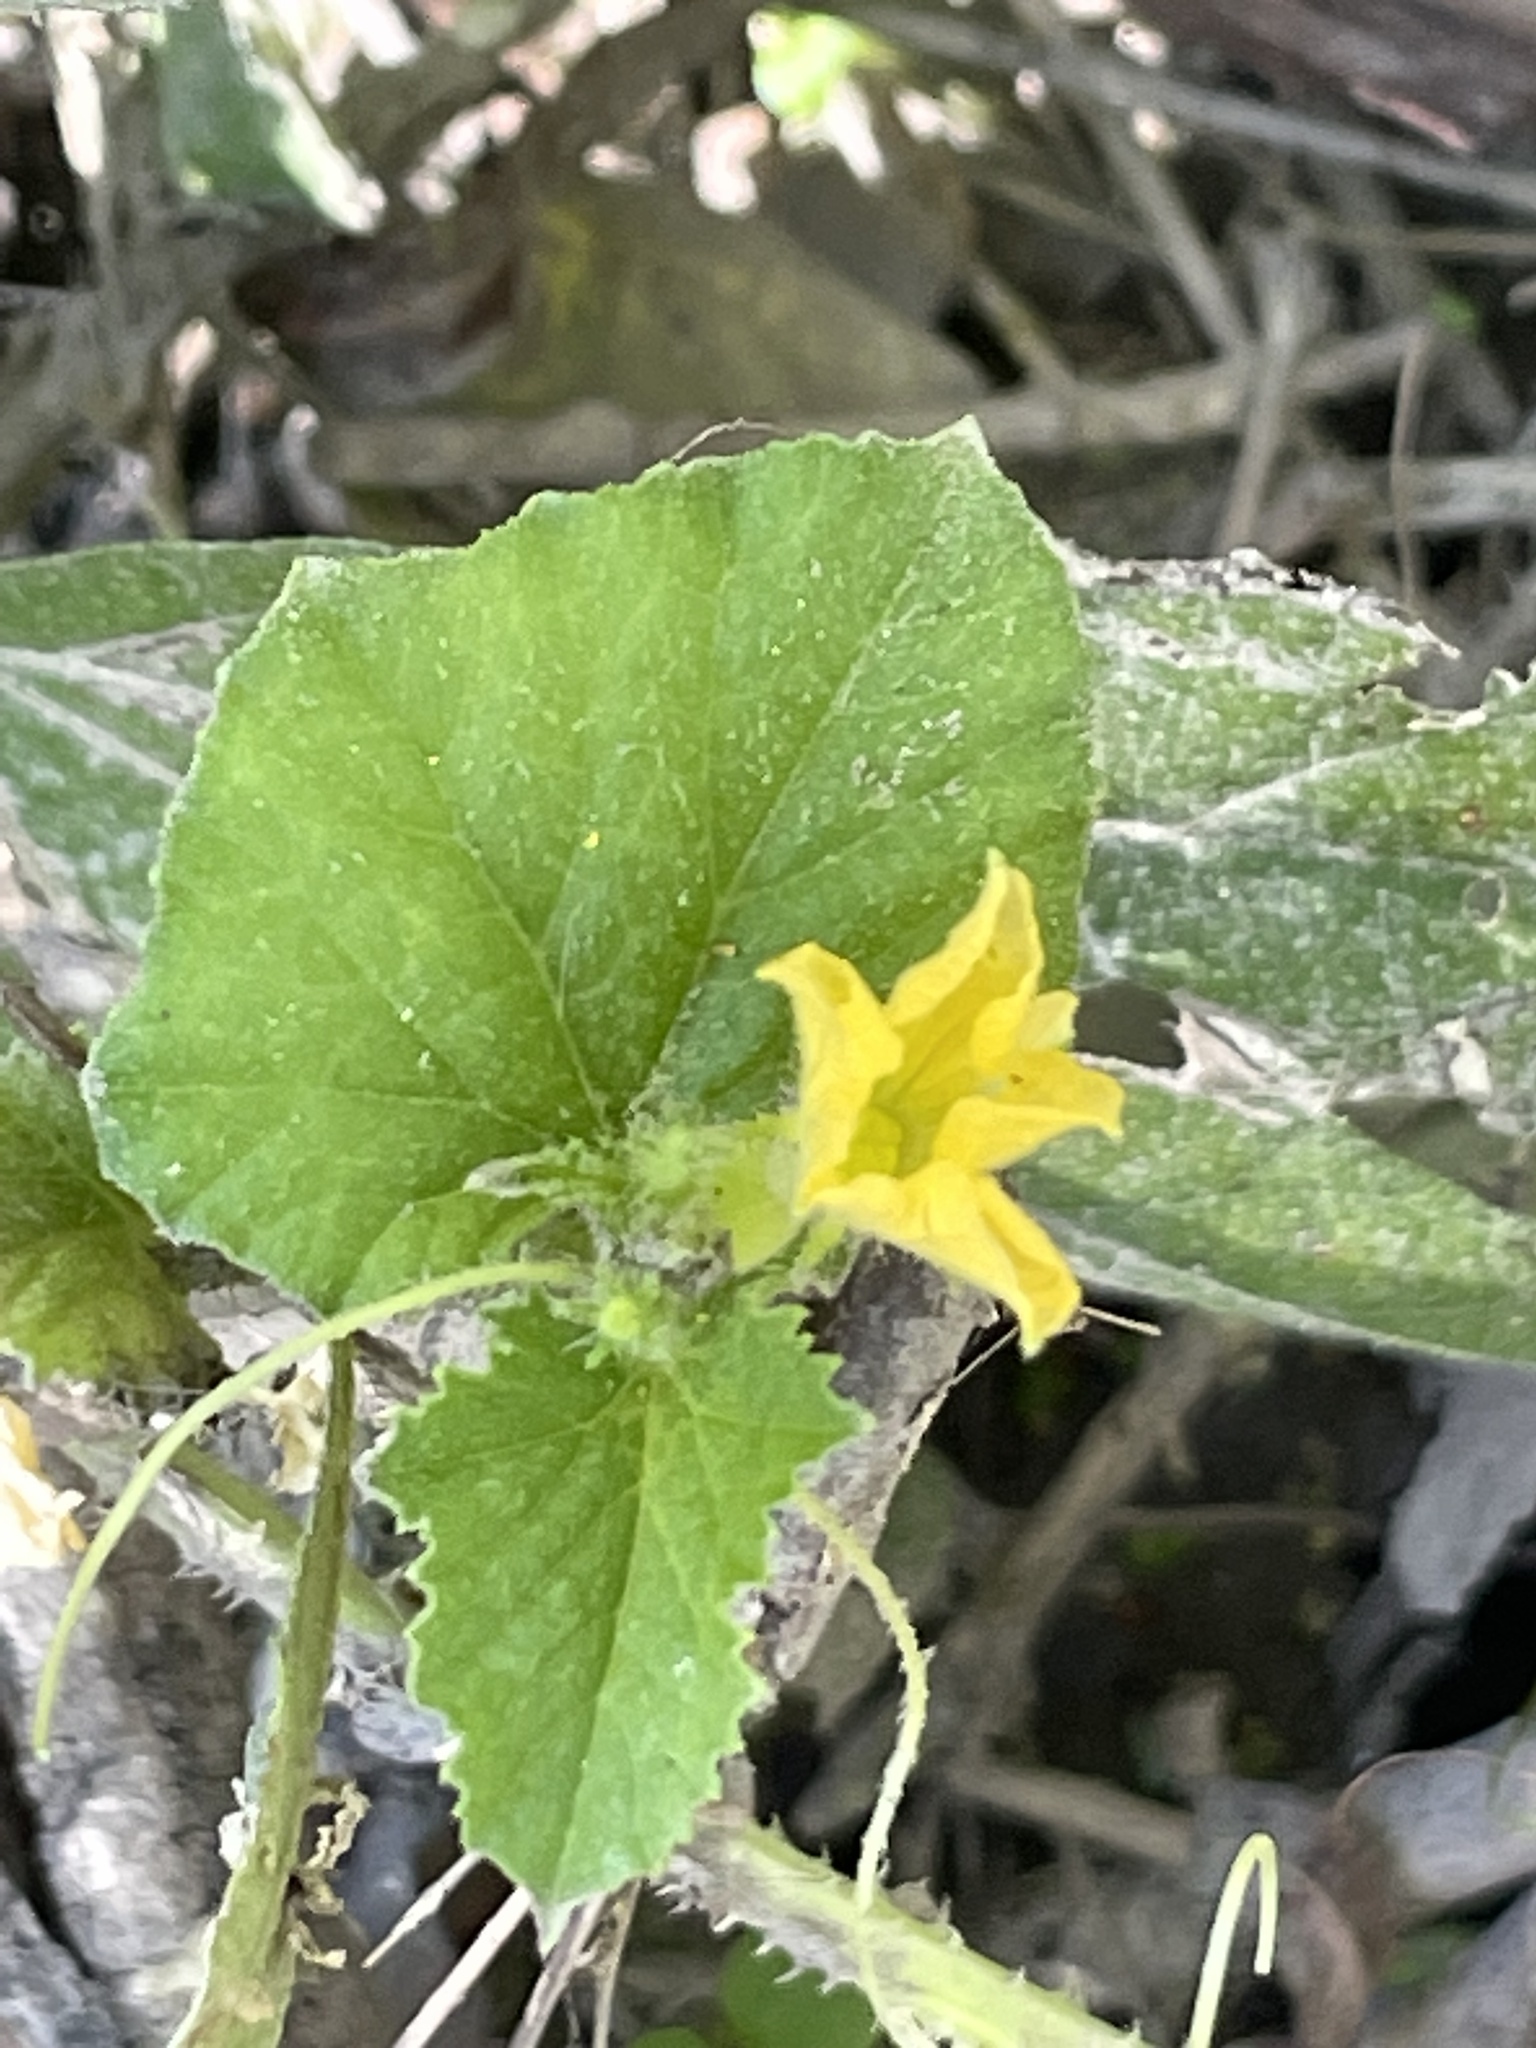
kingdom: Plantae
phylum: Tracheophyta
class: Magnoliopsida
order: Cucurbitales
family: Cucurbitaceae
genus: Cucumis
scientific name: Cucumis melo
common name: Melon
